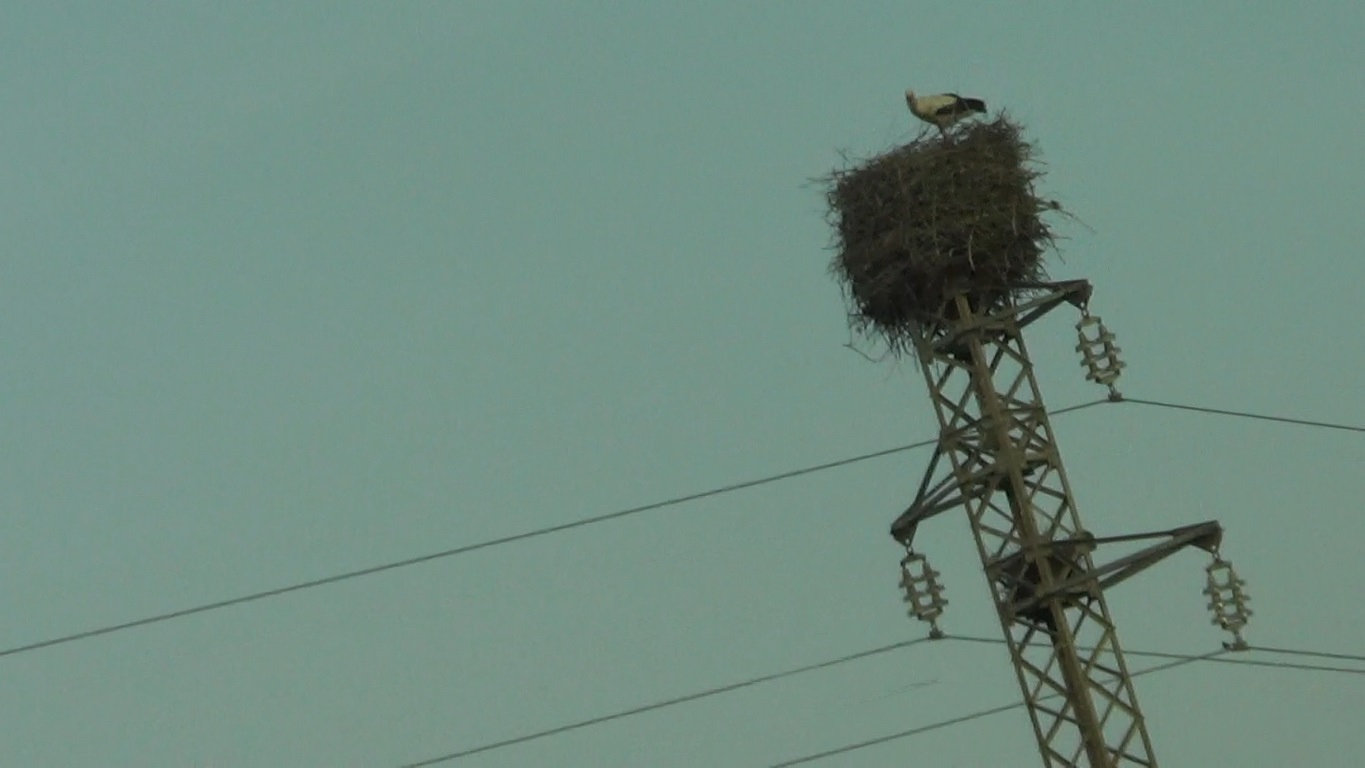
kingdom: Animalia
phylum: Chordata
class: Aves
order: Ciconiiformes
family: Ciconiidae
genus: Ciconia
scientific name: Ciconia ciconia
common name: White stork
